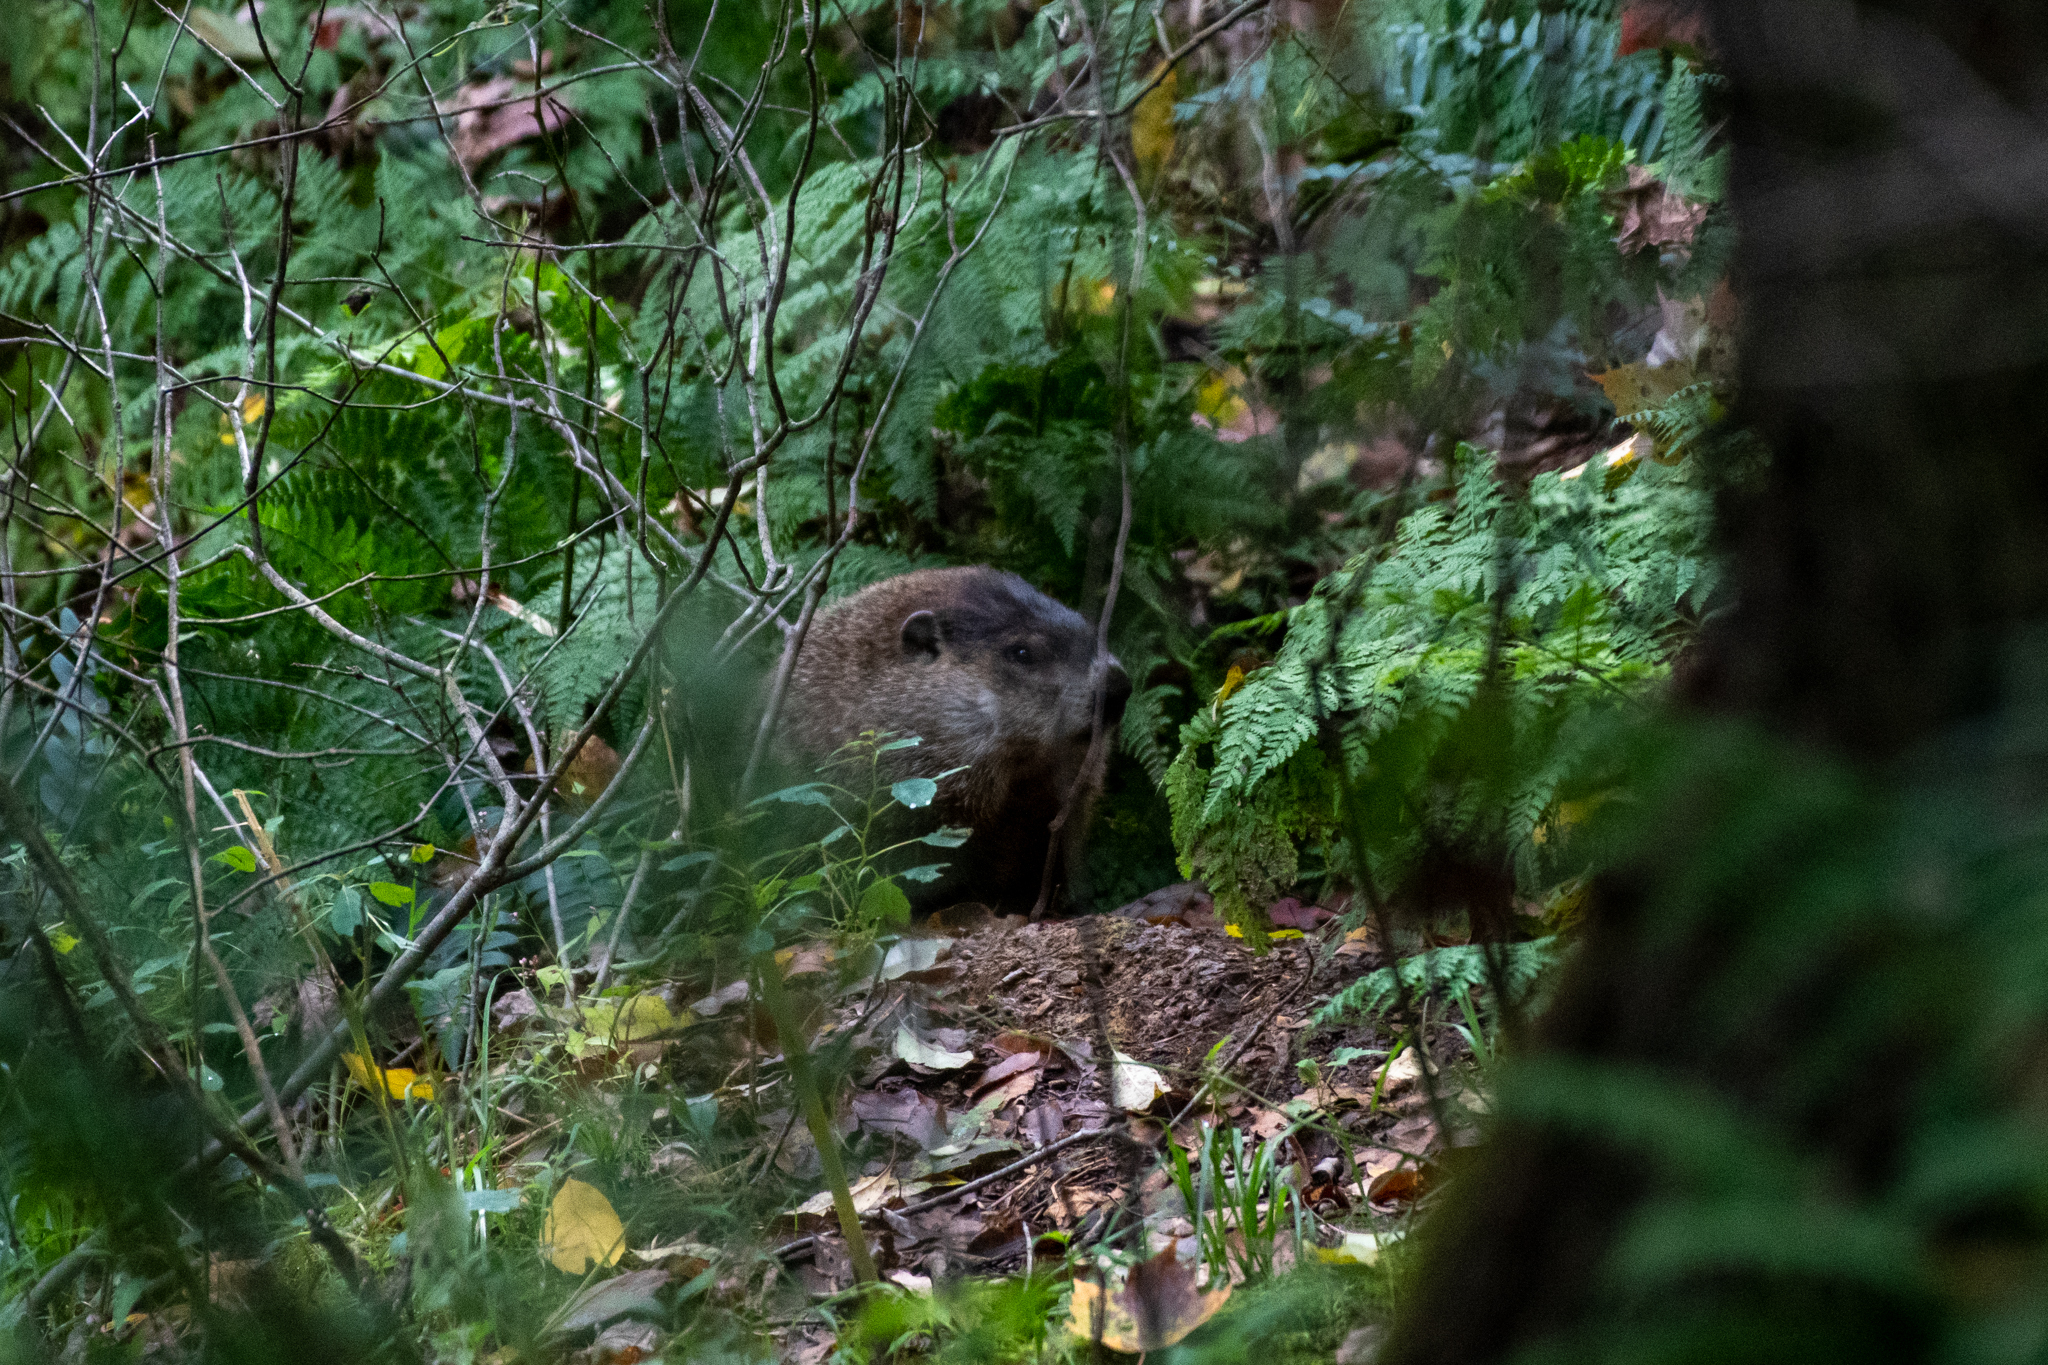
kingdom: Animalia
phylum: Chordata
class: Mammalia
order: Rodentia
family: Sciuridae
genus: Marmota
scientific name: Marmota monax
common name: Groundhog
